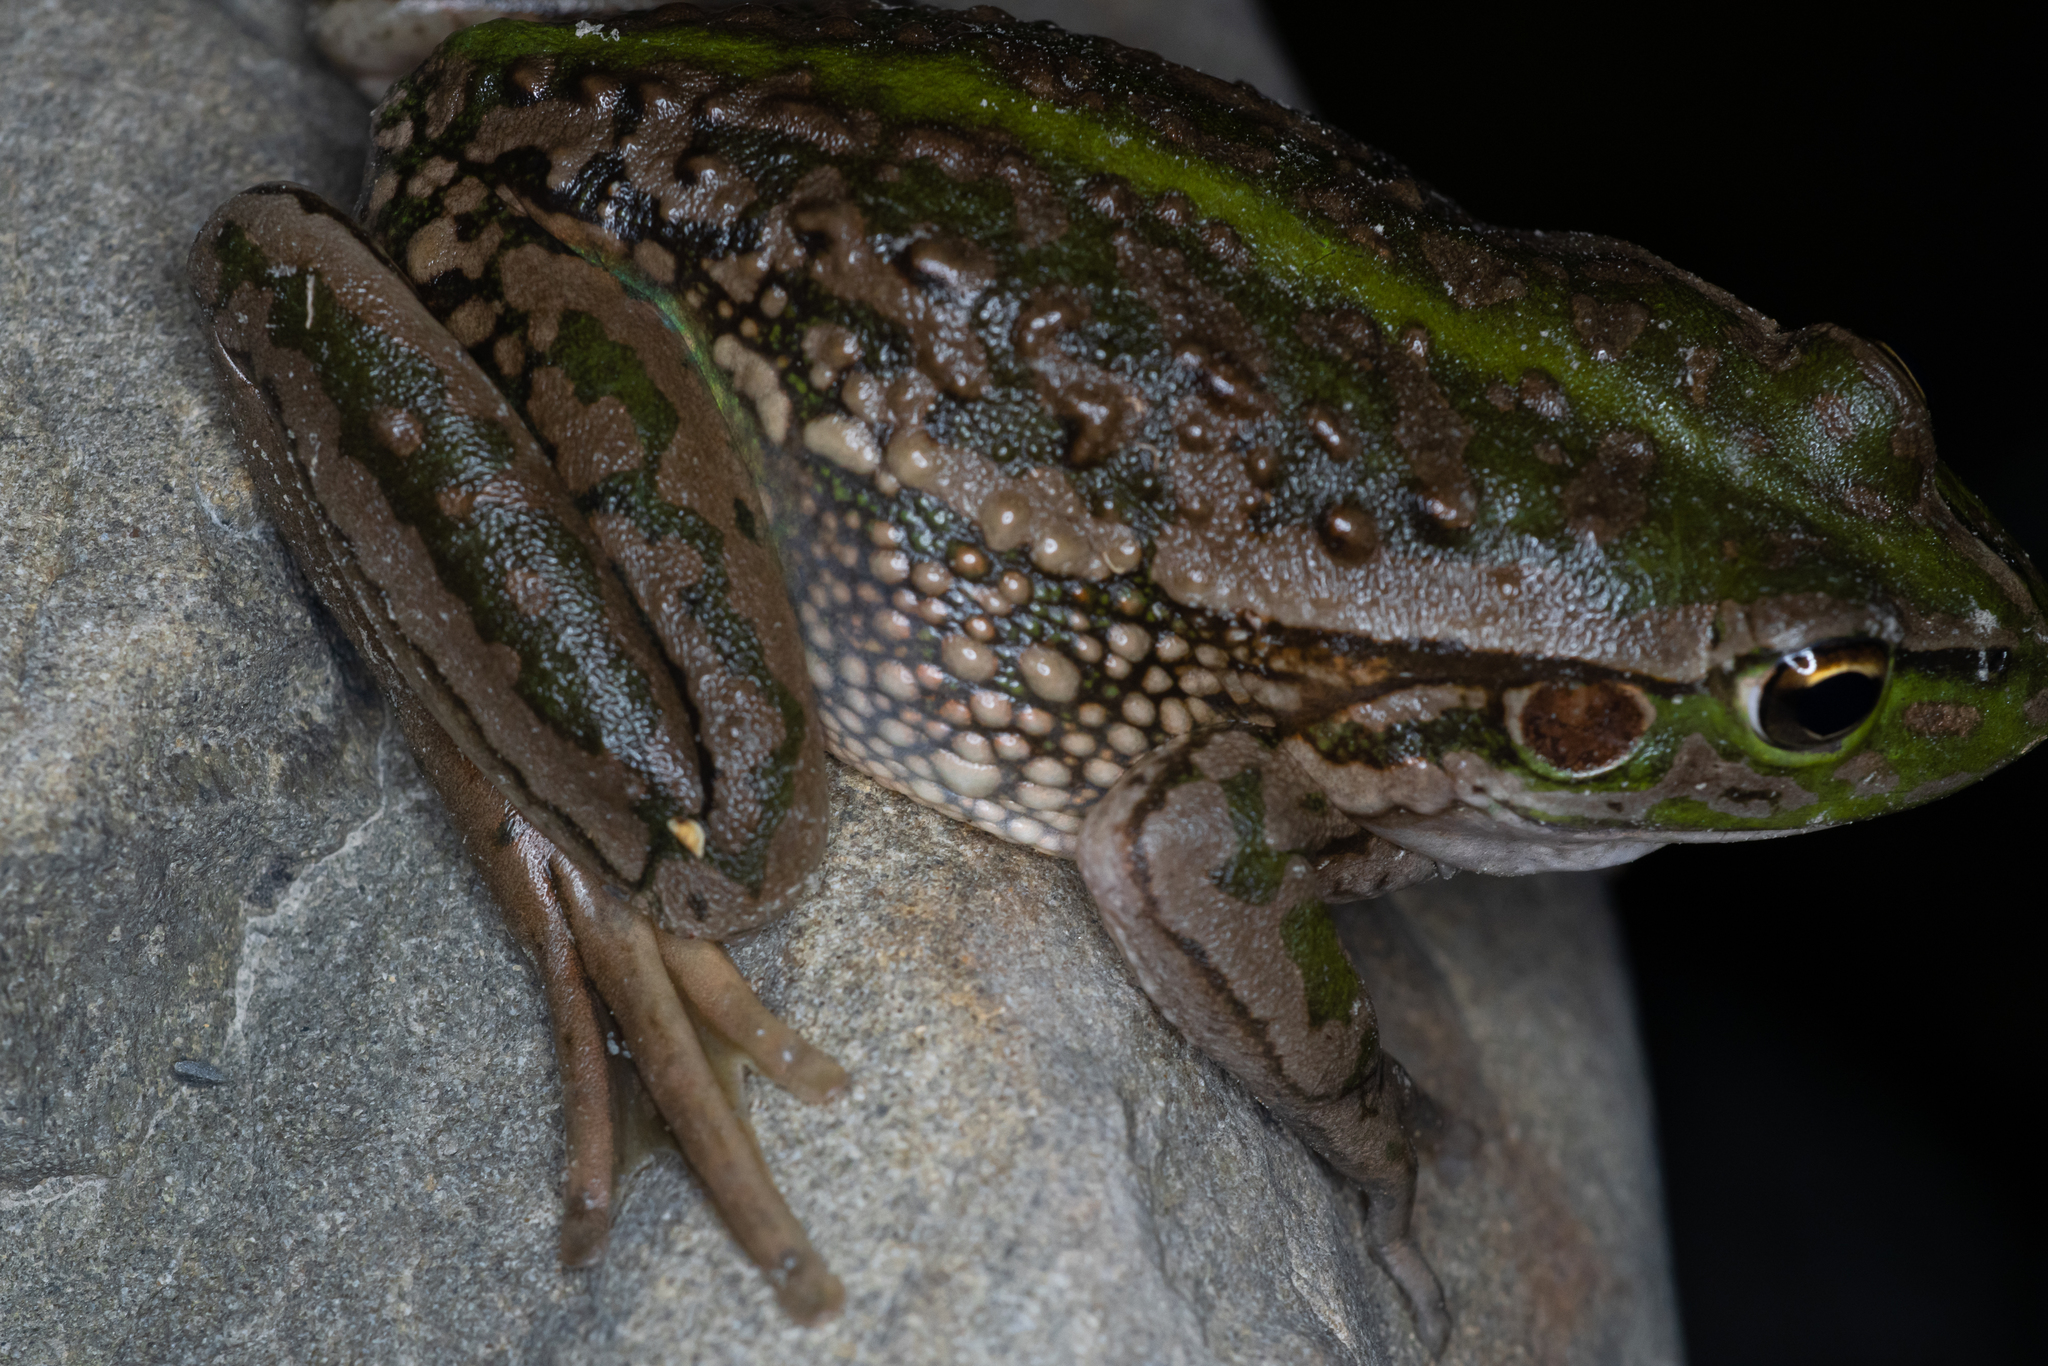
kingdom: Animalia
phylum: Chordata
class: Amphibia
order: Anura
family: Pelodryadidae
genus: Ranoidea
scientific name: Ranoidea raniformis
